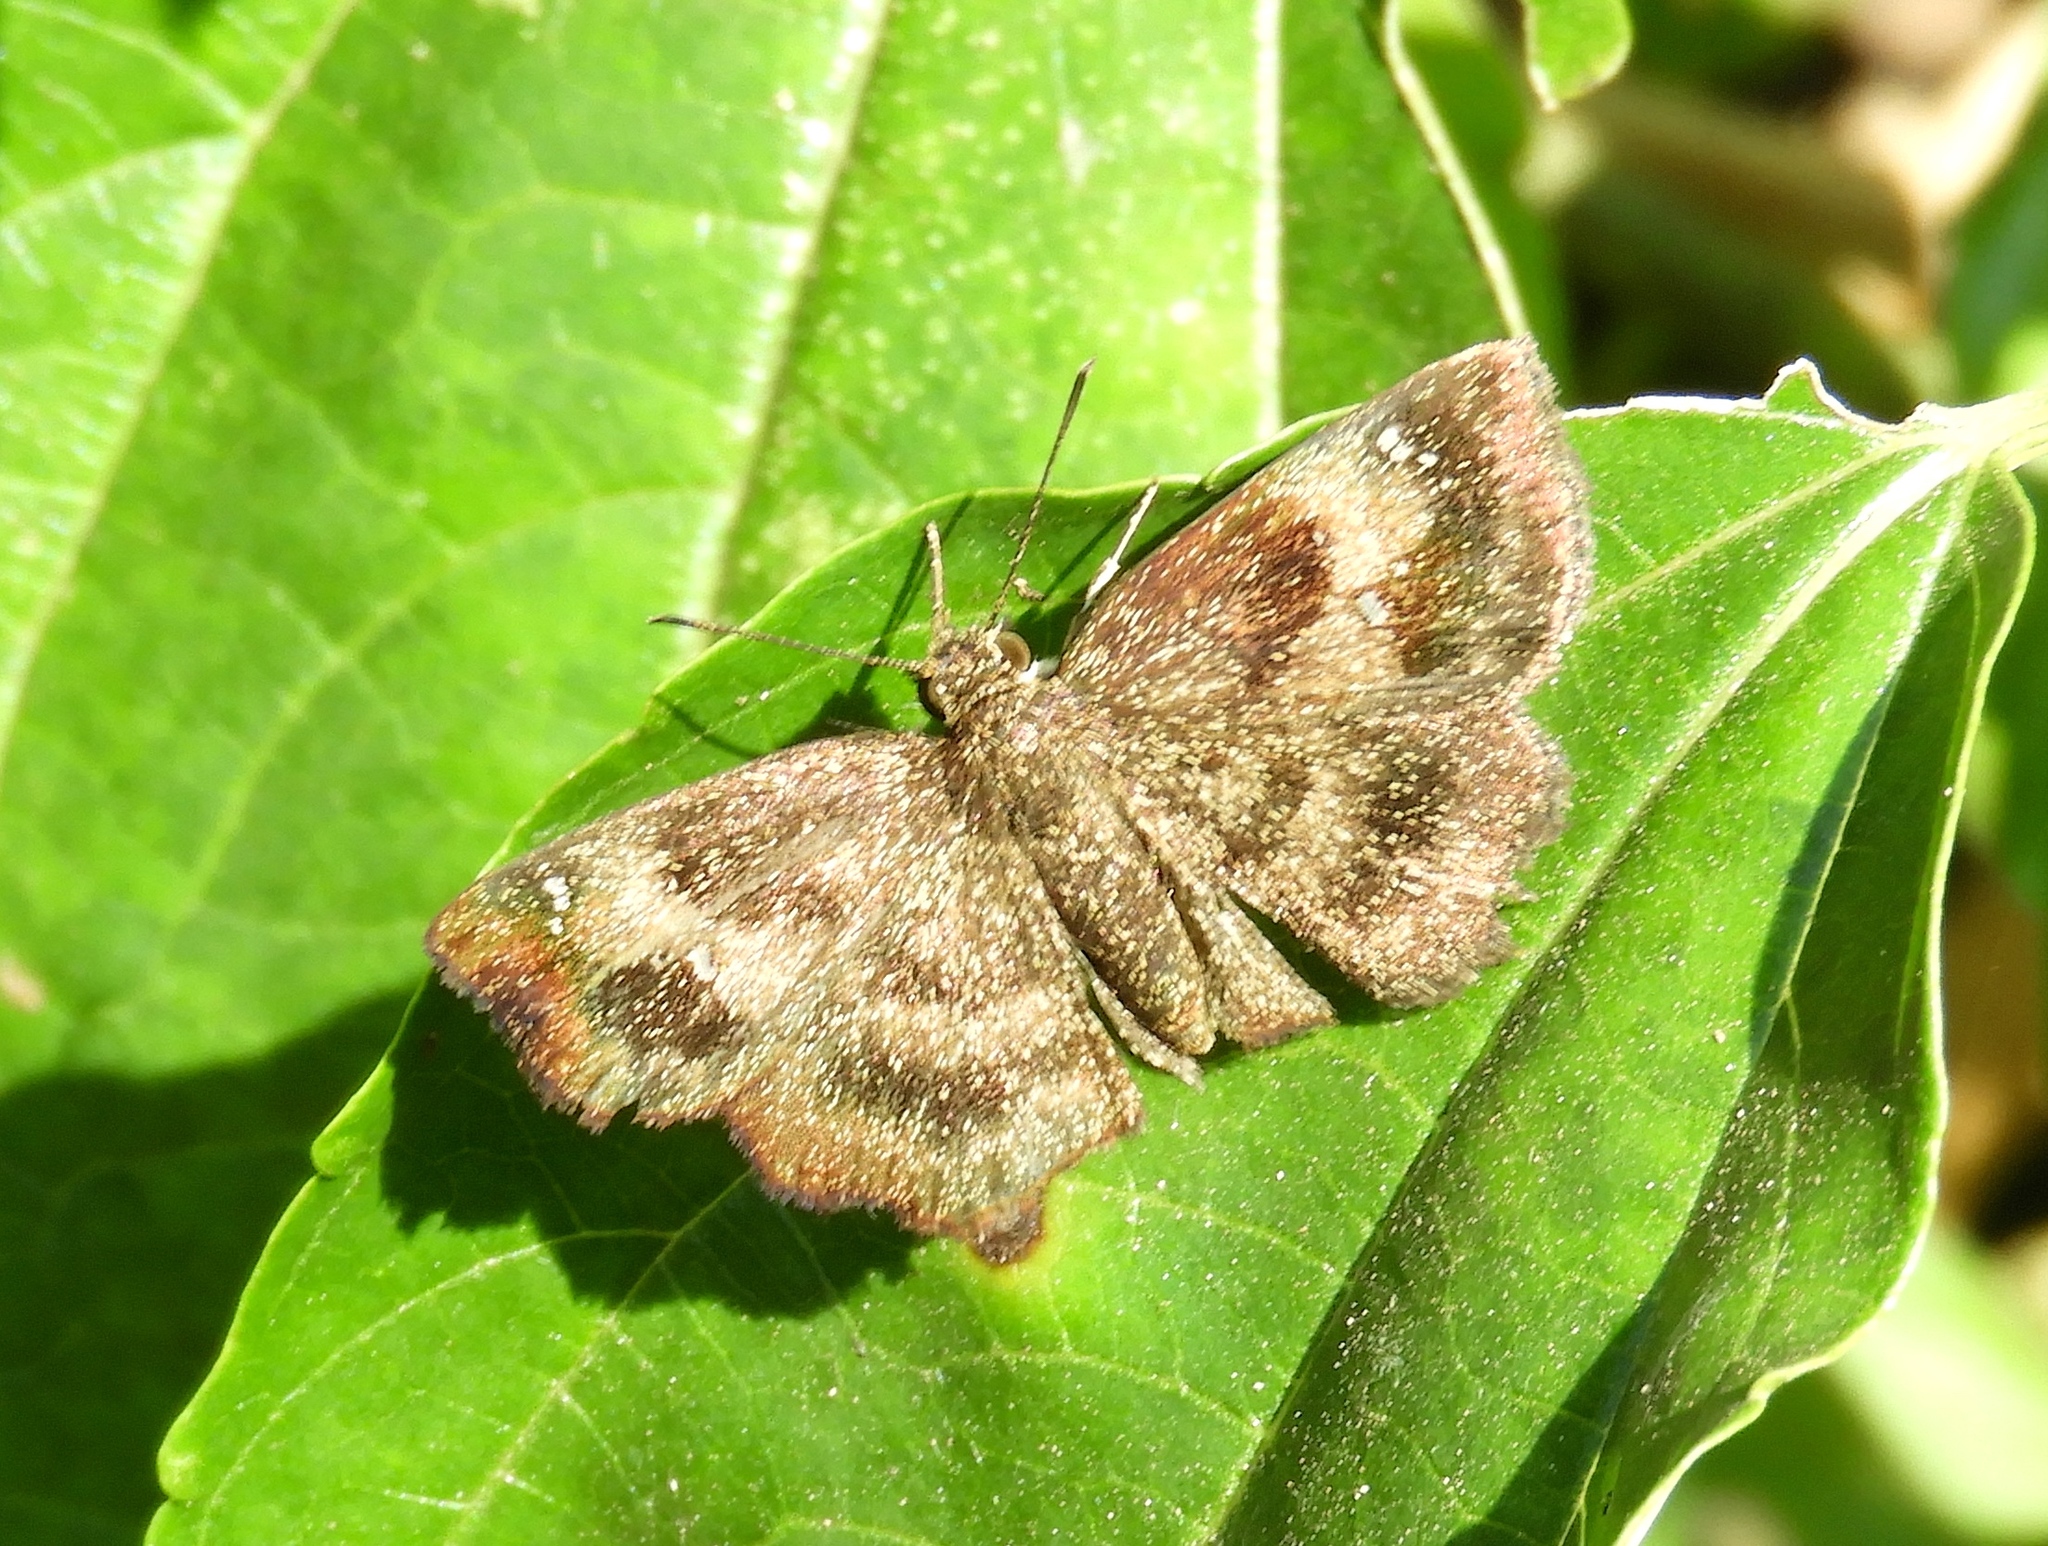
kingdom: Animalia
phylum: Arthropoda
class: Insecta
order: Lepidoptera
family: Hesperiidae
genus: Pyrginae
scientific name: Pyrginae
